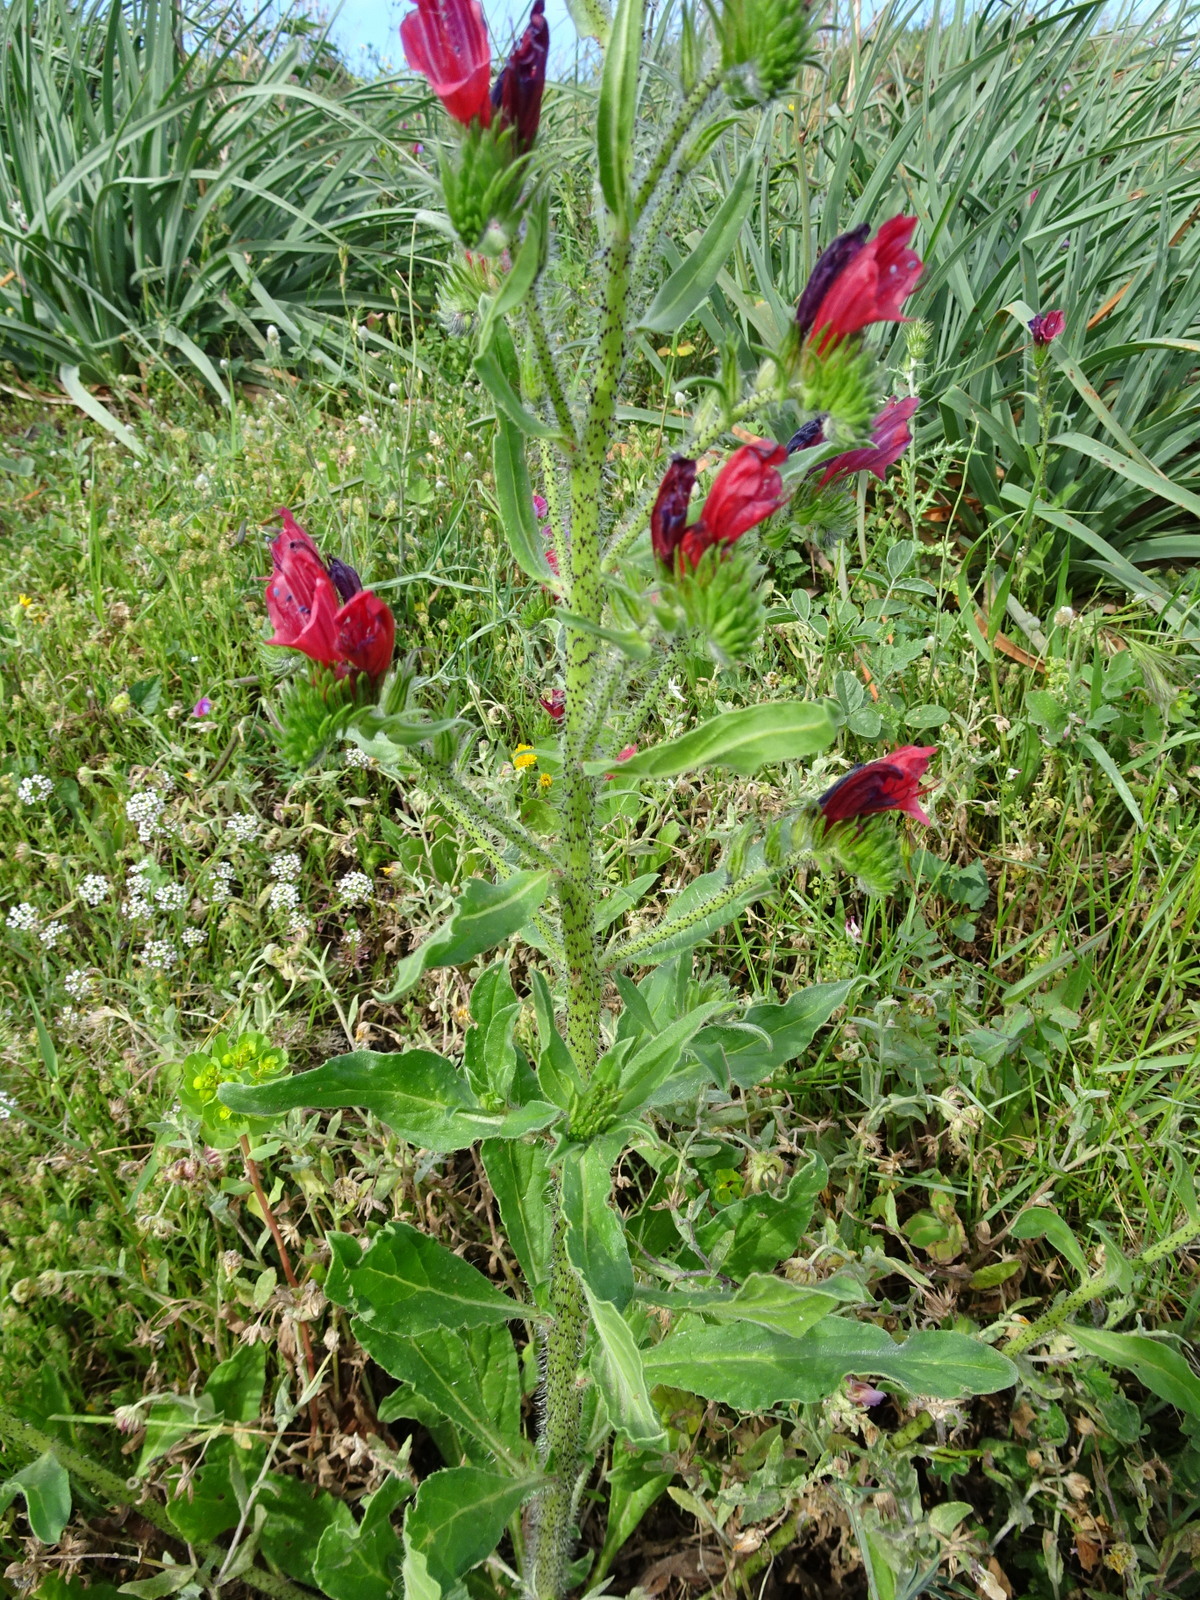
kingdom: Plantae
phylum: Tracheophyta
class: Magnoliopsida
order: Boraginales
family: Boraginaceae
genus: Echium
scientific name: Echium creticum
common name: Cretan viper's bugloss
